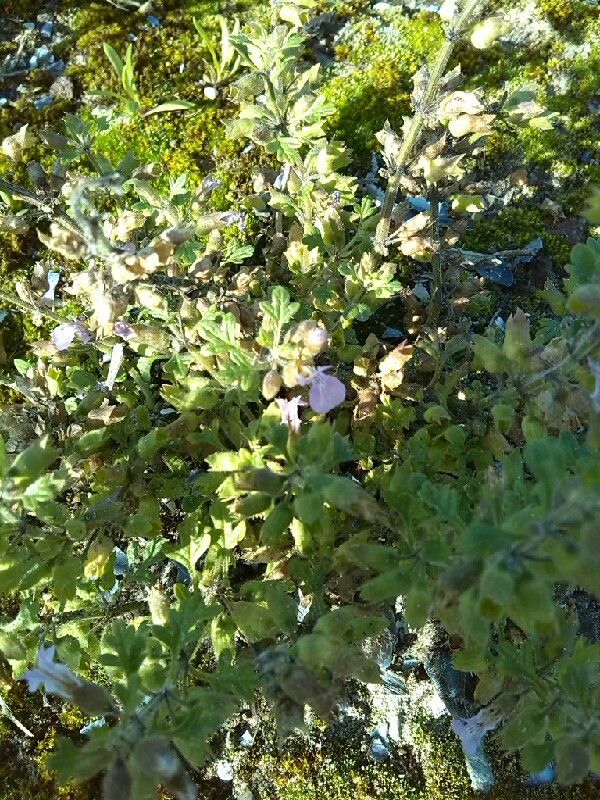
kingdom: Plantae
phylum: Tracheophyta
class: Magnoliopsida
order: Lamiales
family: Lamiaceae
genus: Teucrium
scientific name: Teucrium botrys
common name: Cut-leaved germander
